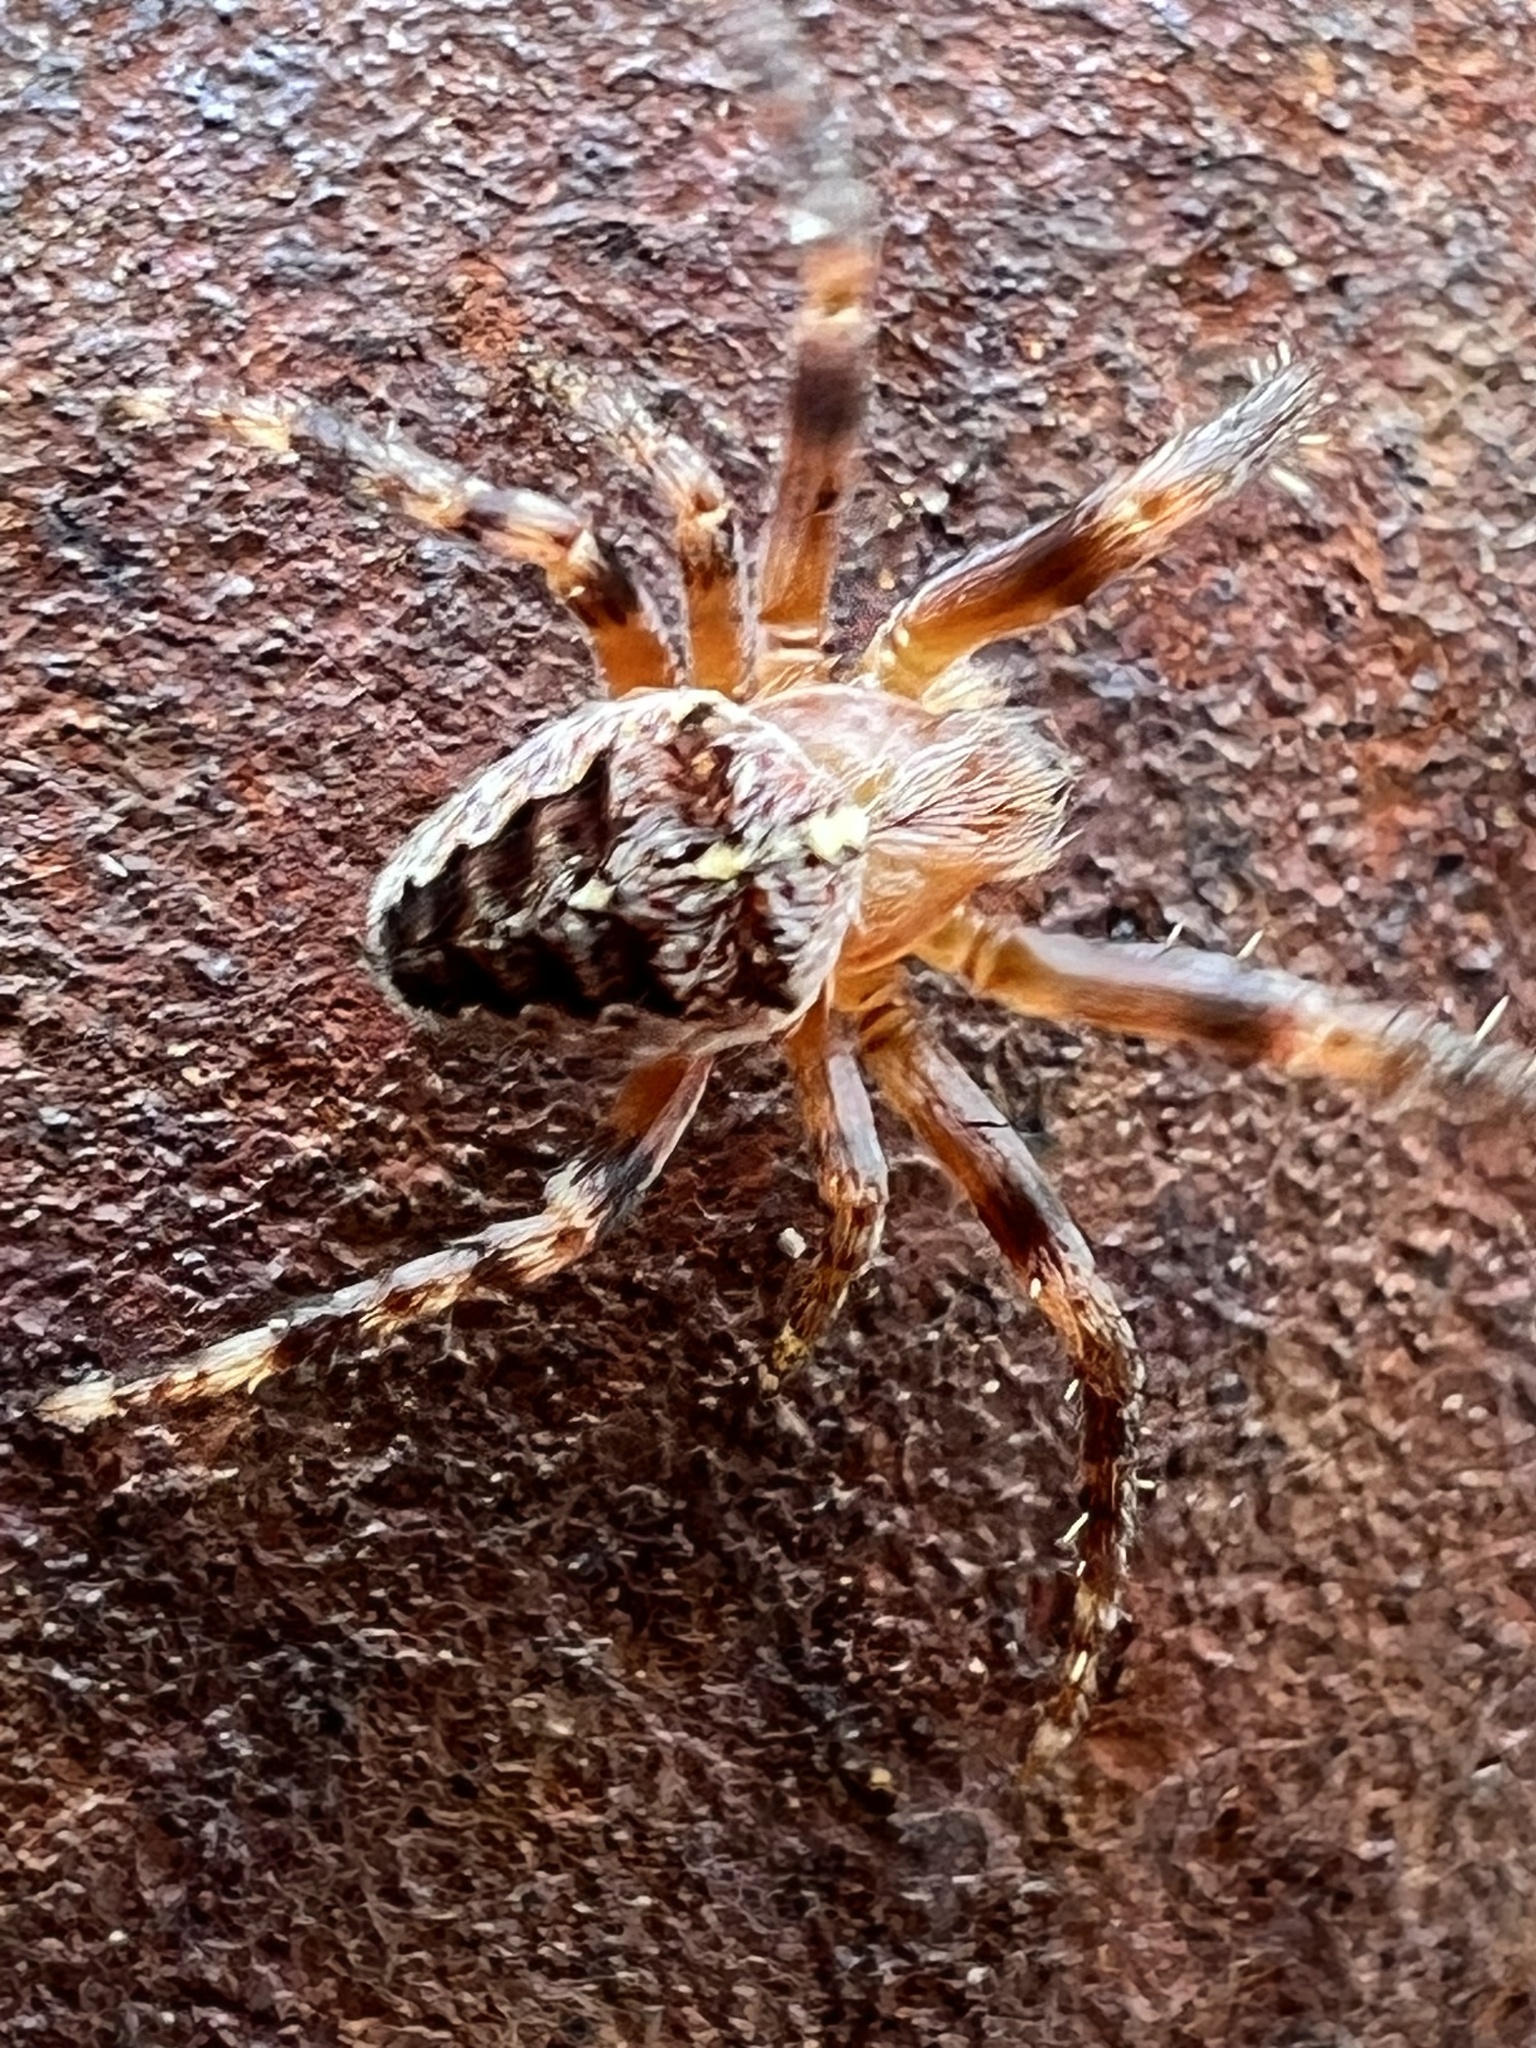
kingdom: Animalia
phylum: Arthropoda
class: Arachnida
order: Araneae
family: Araneidae
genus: Araneus
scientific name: Araneus diadematus
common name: Cross orbweaver
